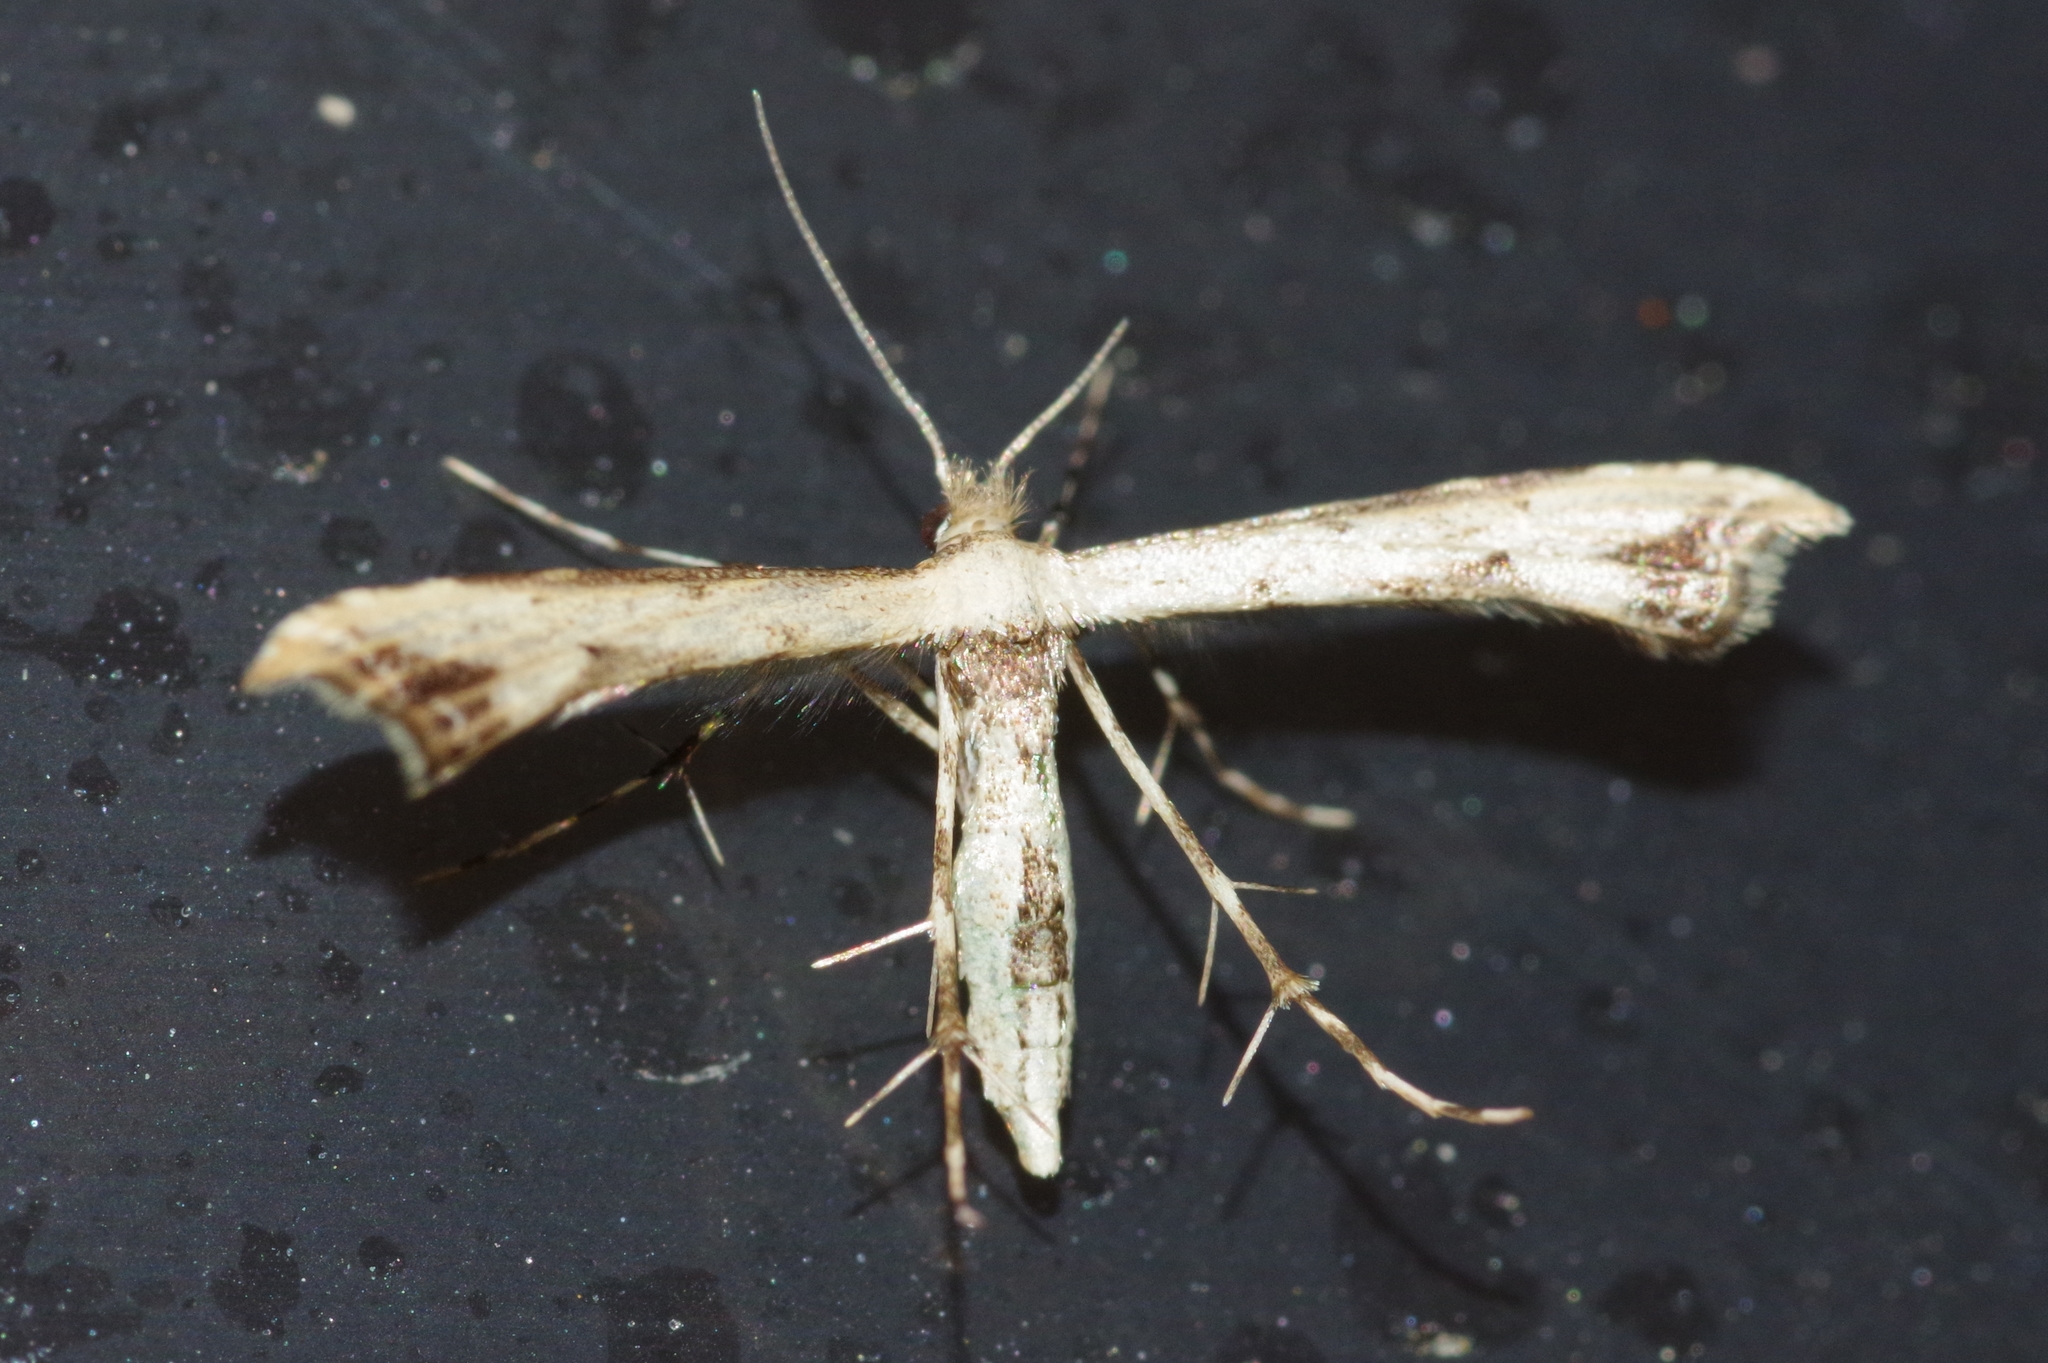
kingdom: Animalia
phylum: Arthropoda
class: Insecta
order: Lepidoptera
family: Pterophoridae
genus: Ochyrotica
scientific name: Ochyrotica yanoi
